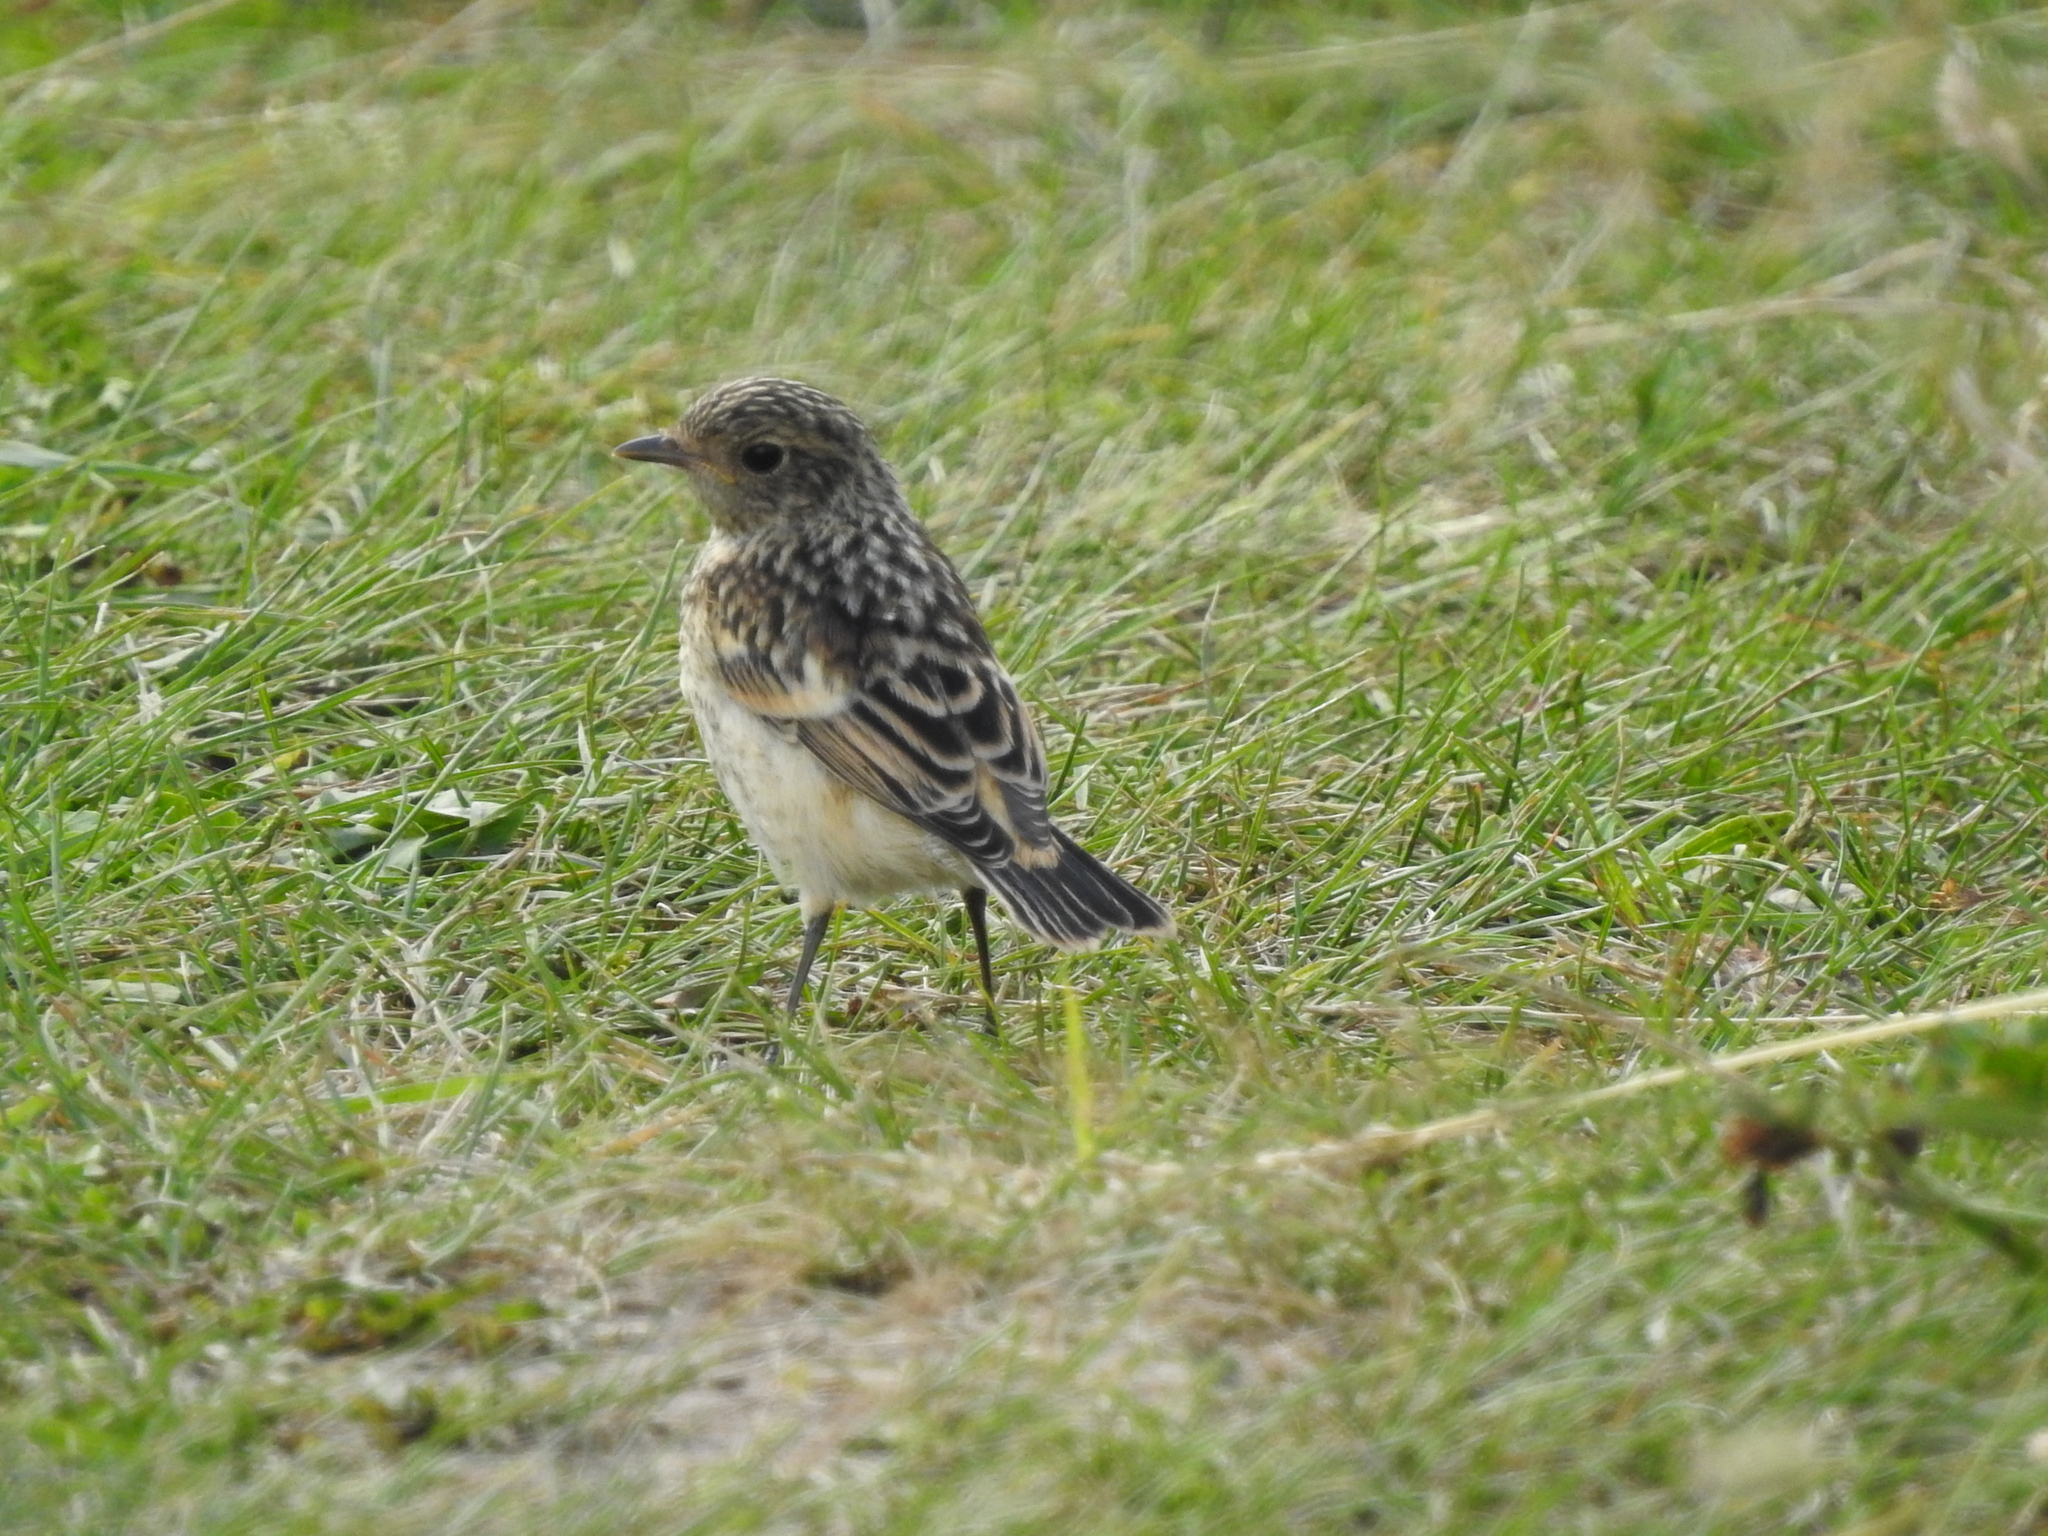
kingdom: Animalia
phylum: Chordata
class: Aves
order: Passeriformes
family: Muscicapidae
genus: Saxicola
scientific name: Saxicola maurus
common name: Siberian stonechat
